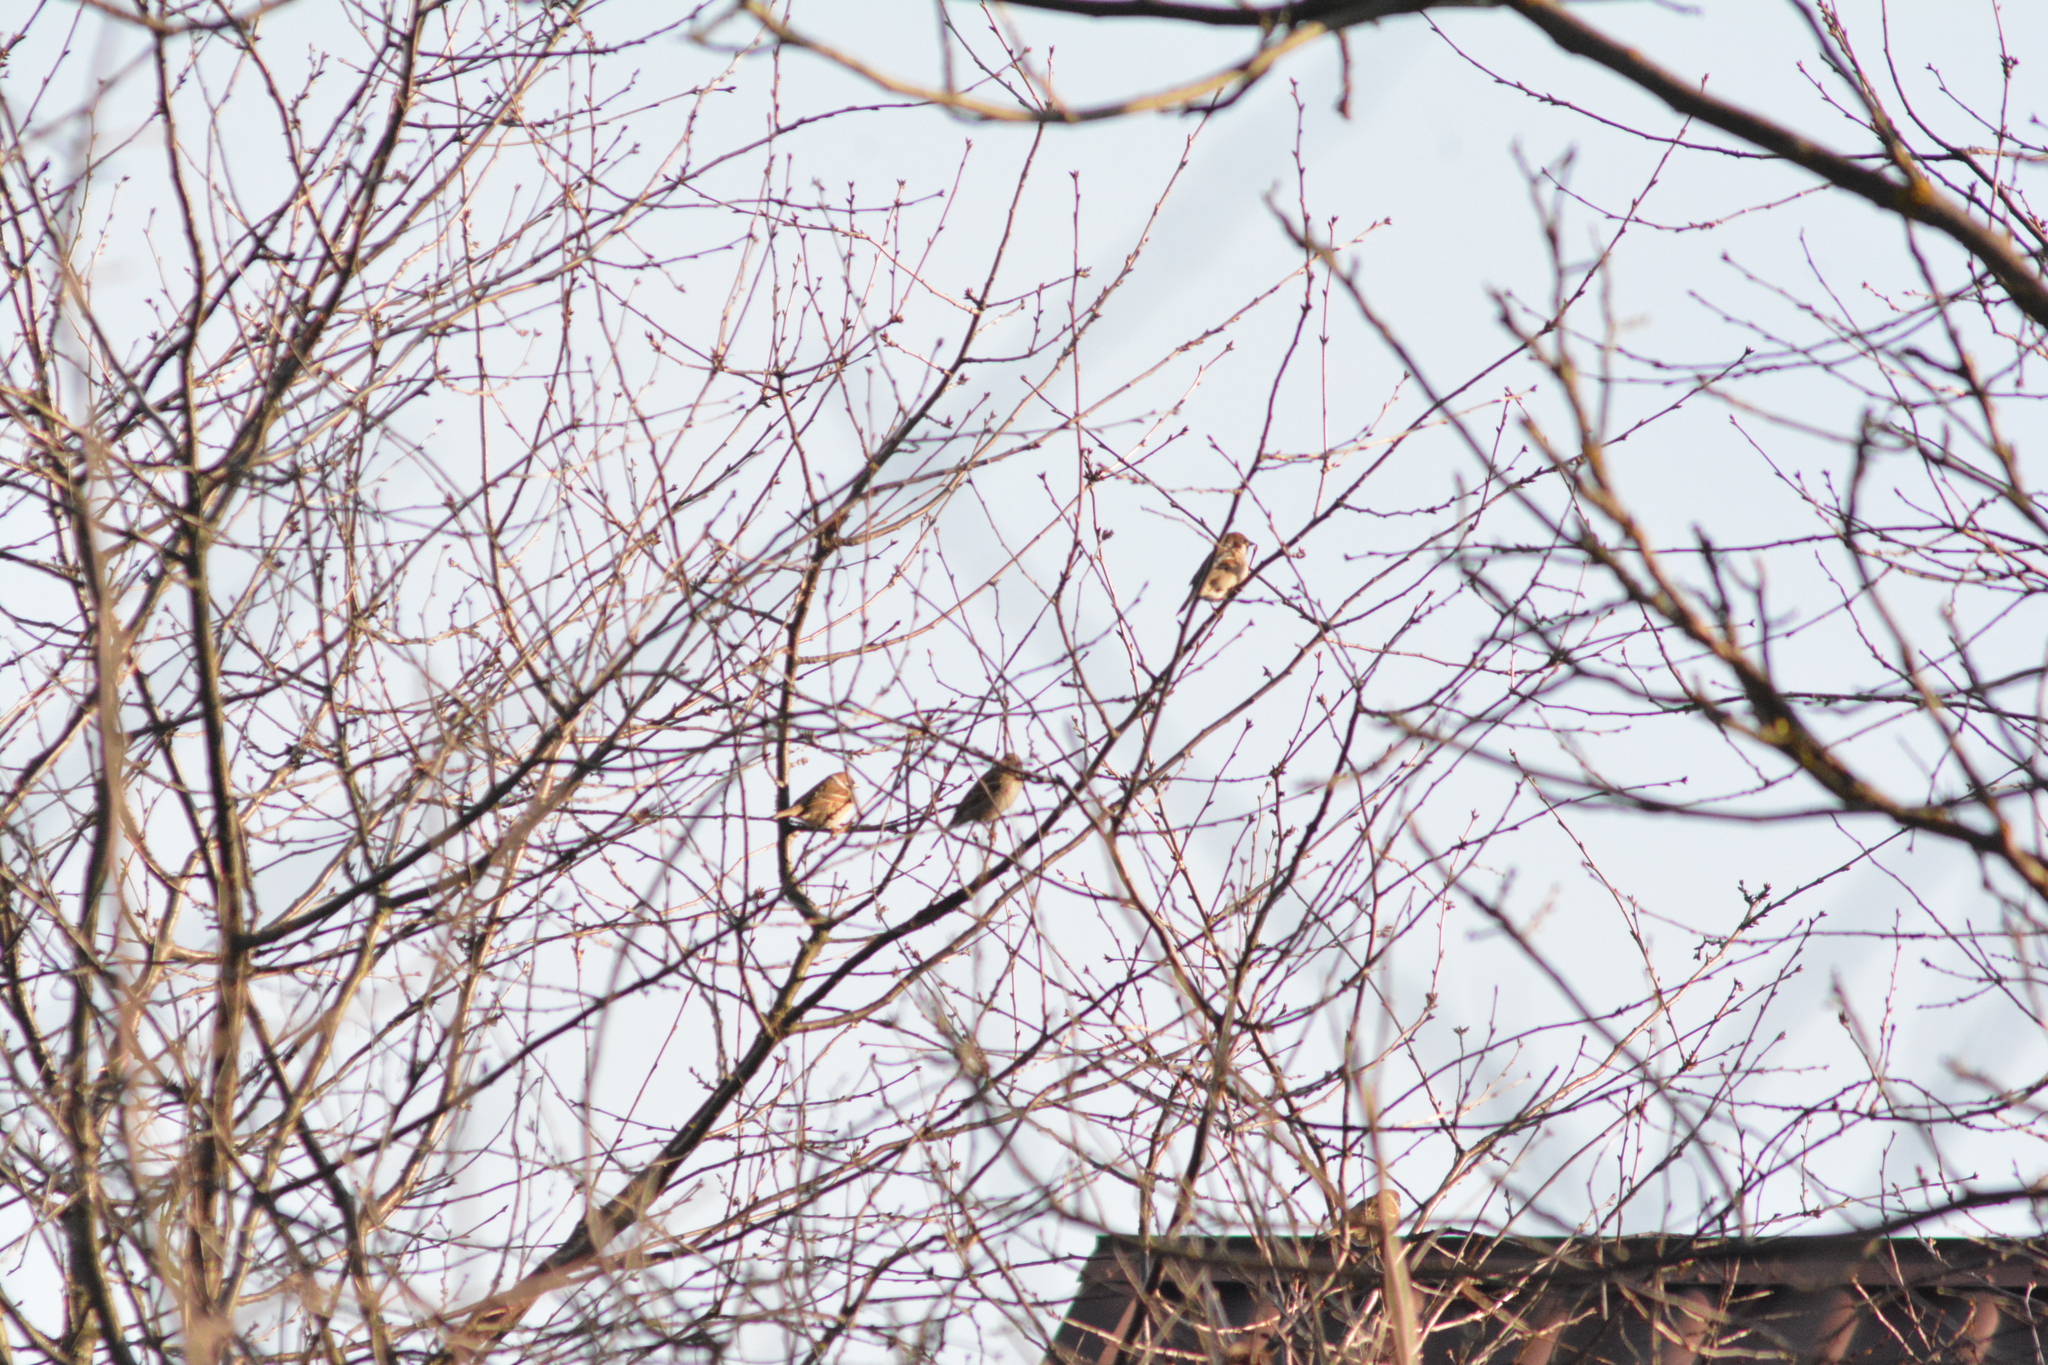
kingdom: Animalia
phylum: Chordata
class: Aves
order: Passeriformes
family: Passeridae
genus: Passer
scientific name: Passer montanus
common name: Eurasian tree sparrow
